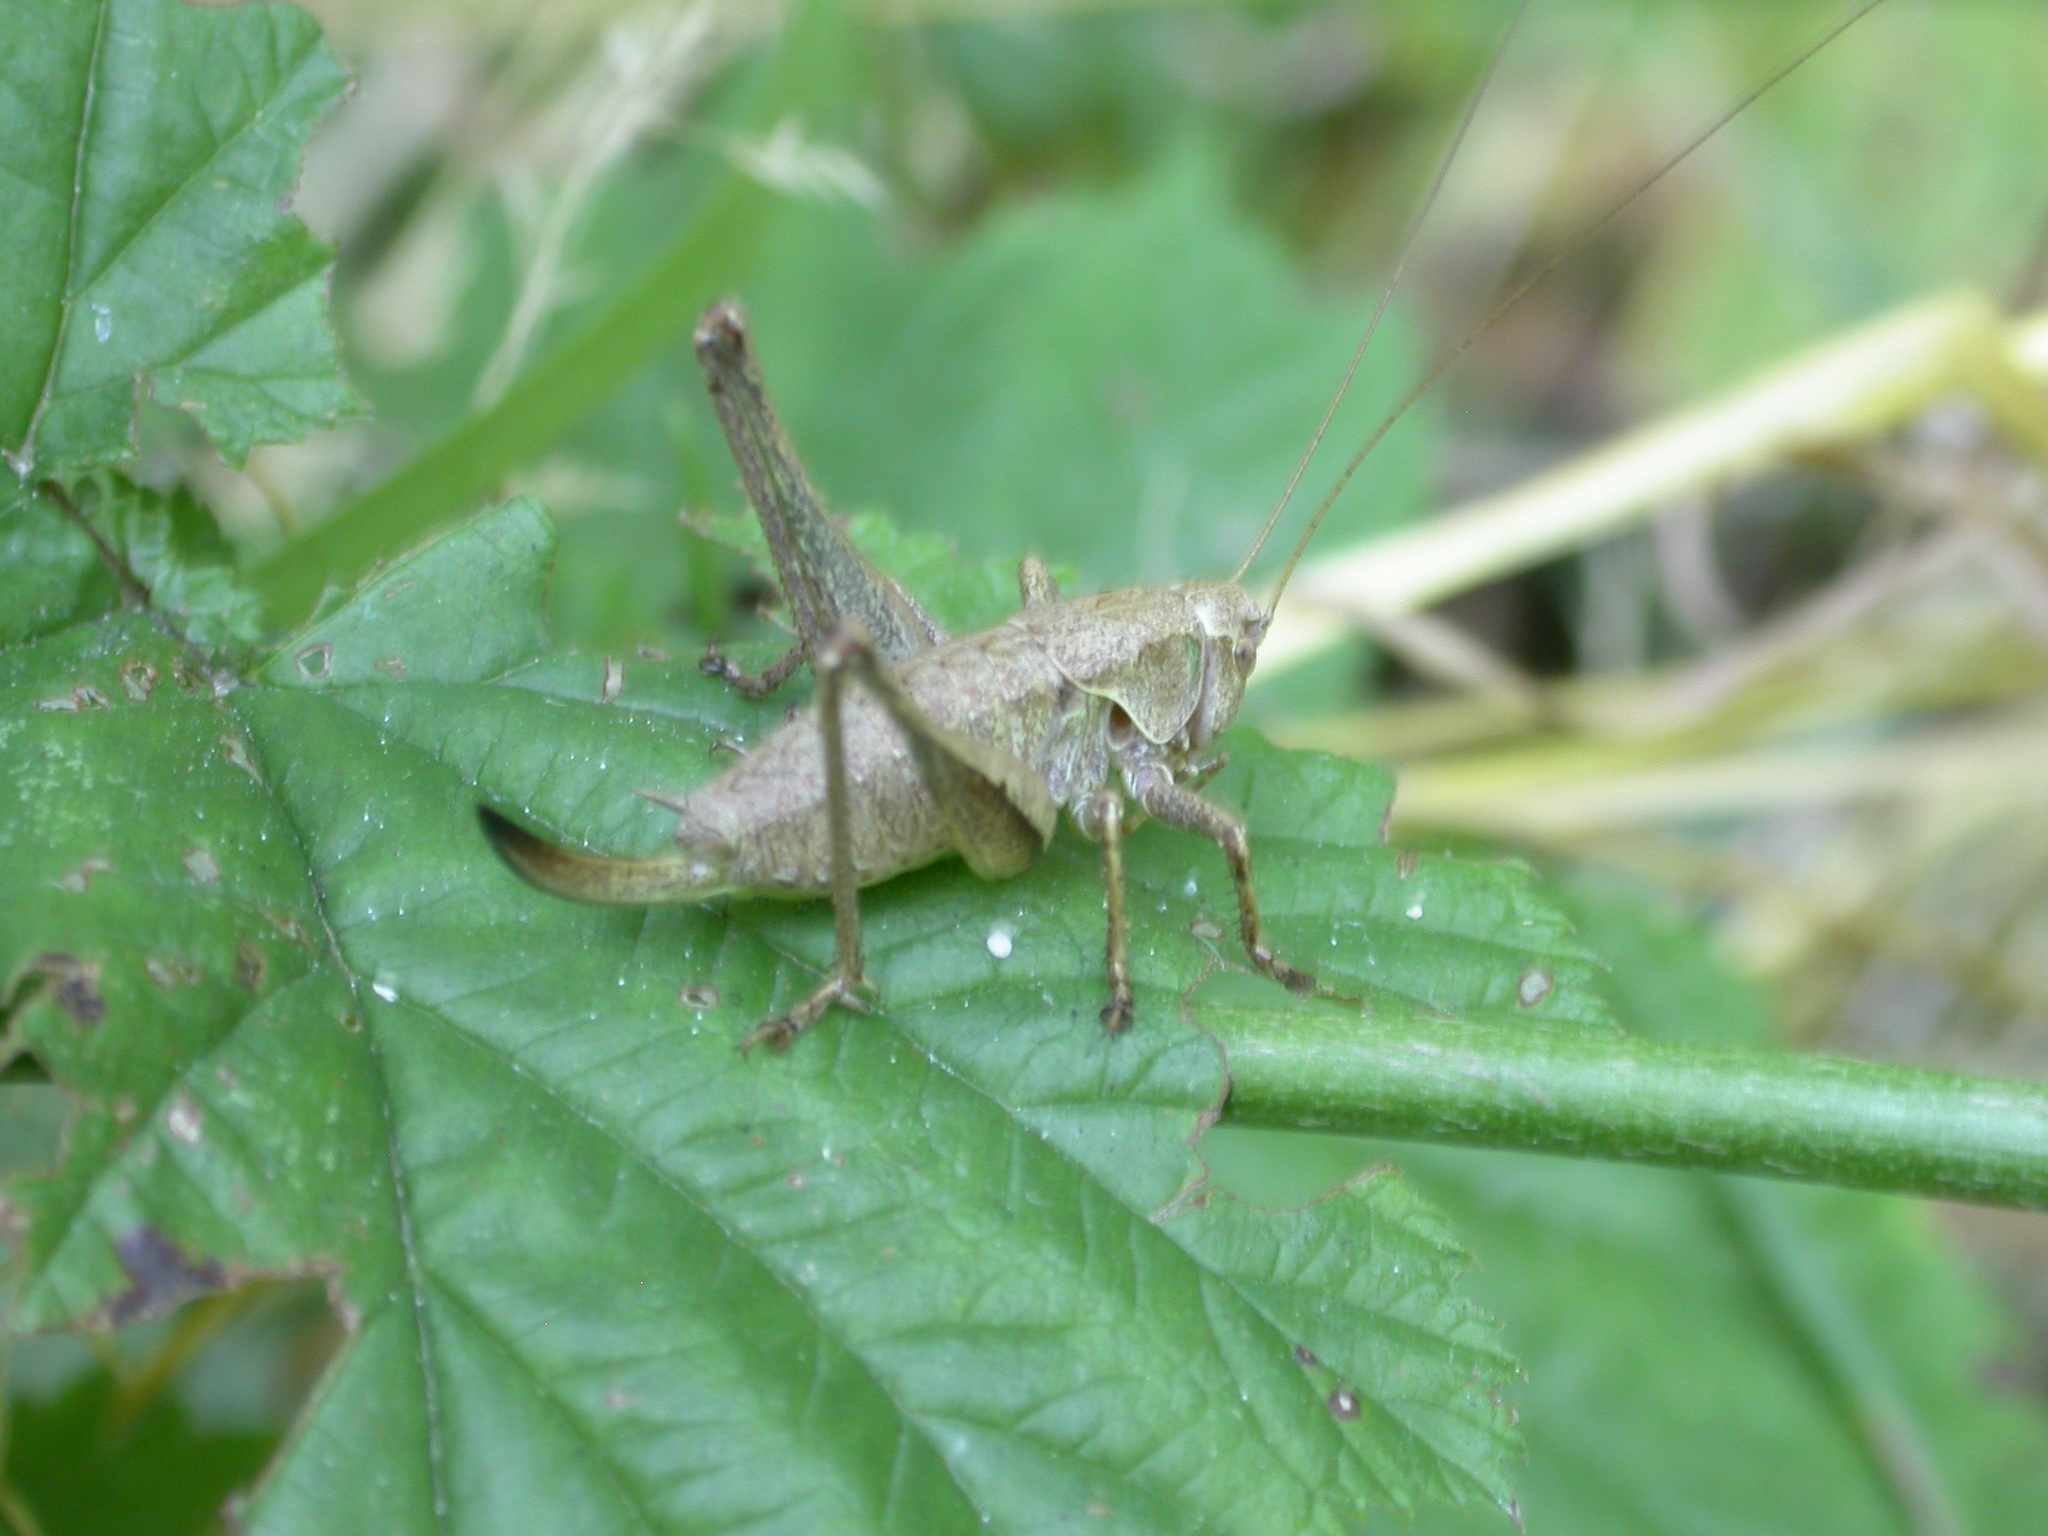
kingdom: Animalia
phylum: Arthropoda
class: Insecta
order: Orthoptera
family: Tettigoniidae
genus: Pholidoptera
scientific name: Pholidoptera griseoaptera
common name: Dark bush-cricket
